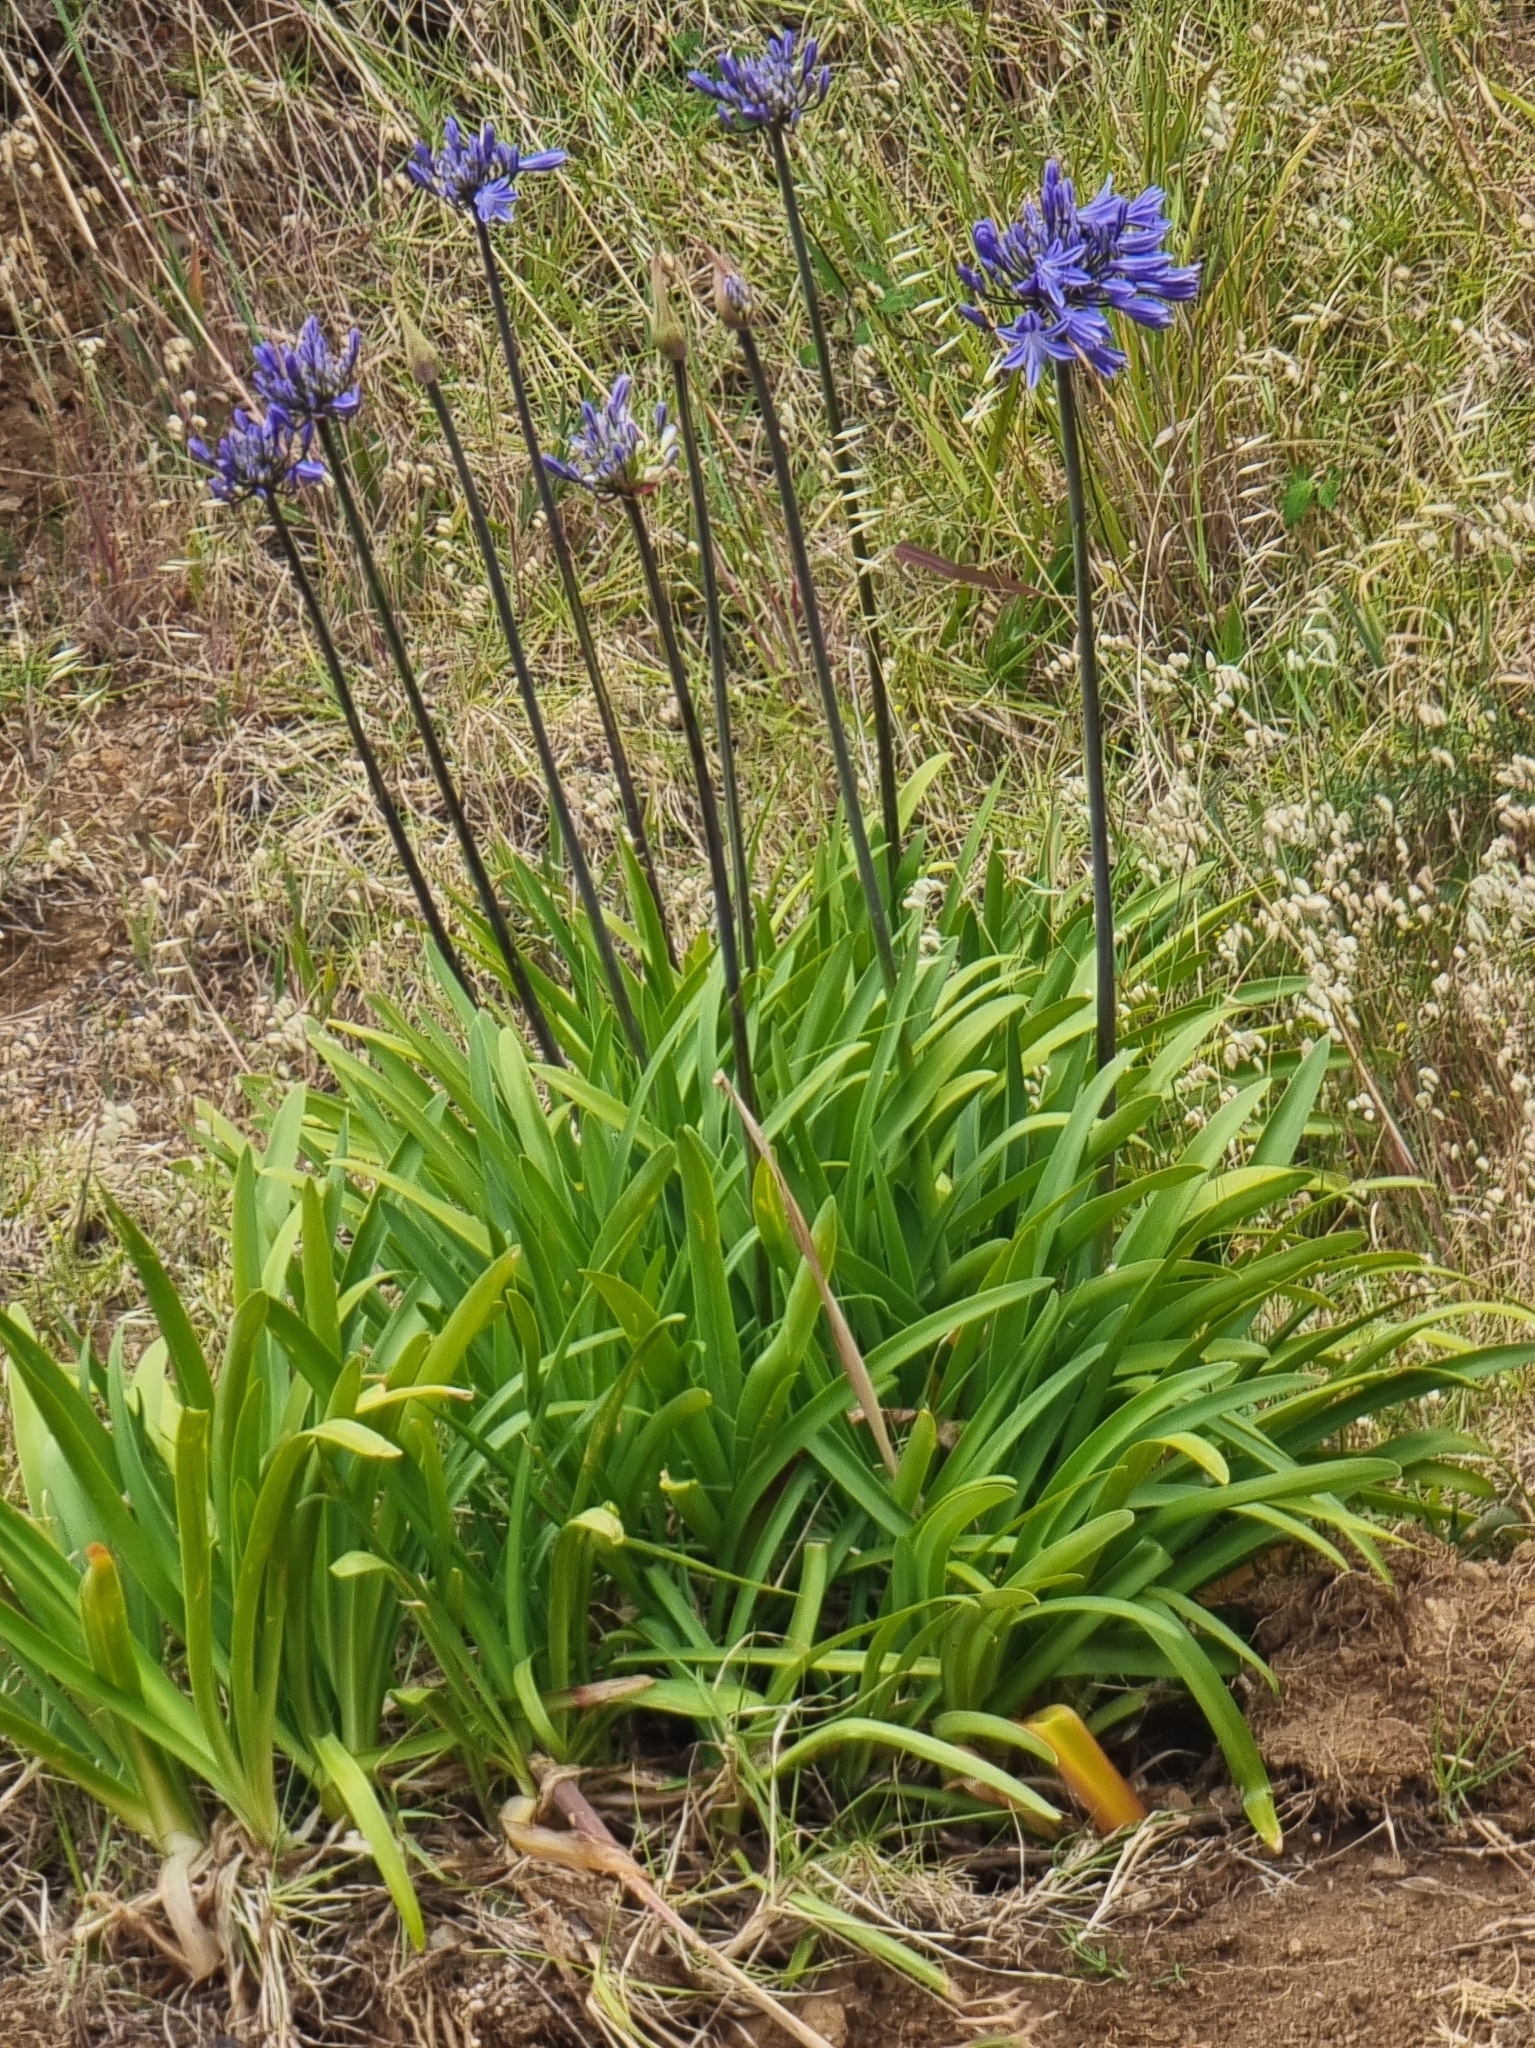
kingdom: Plantae
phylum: Tracheophyta
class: Liliopsida
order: Asparagales
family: Amaryllidaceae
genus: Agapanthus
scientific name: Agapanthus praecox
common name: African-lily
